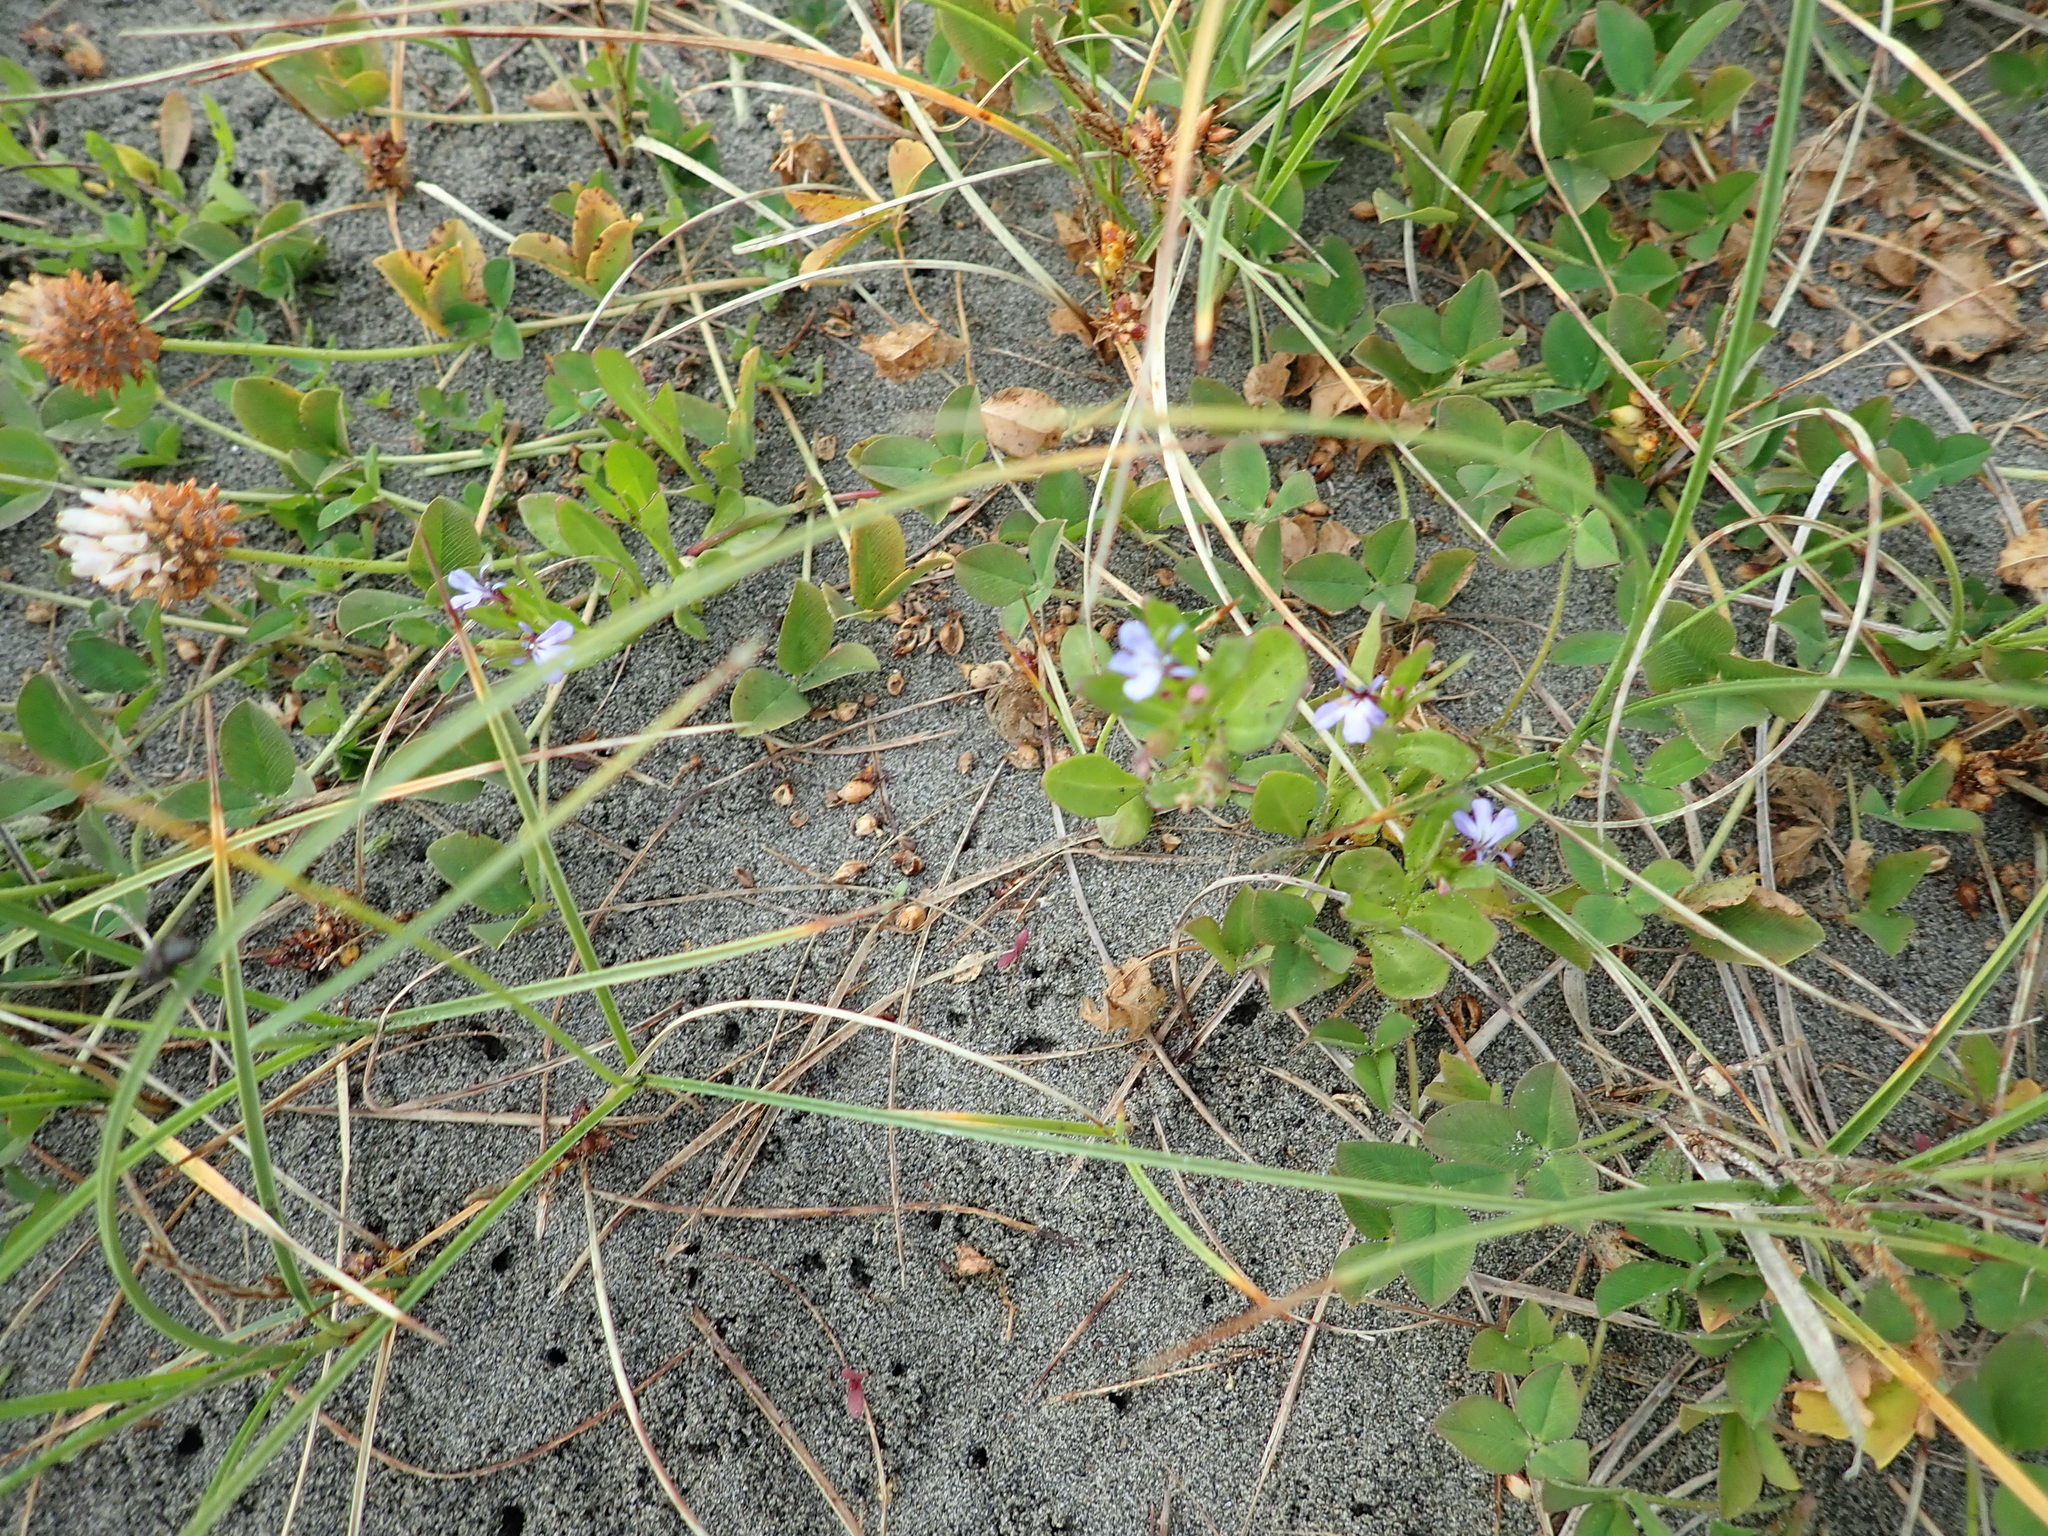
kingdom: Plantae
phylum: Tracheophyta
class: Magnoliopsida
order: Asterales
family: Campanulaceae
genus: Lobelia
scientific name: Lobelia anceps
